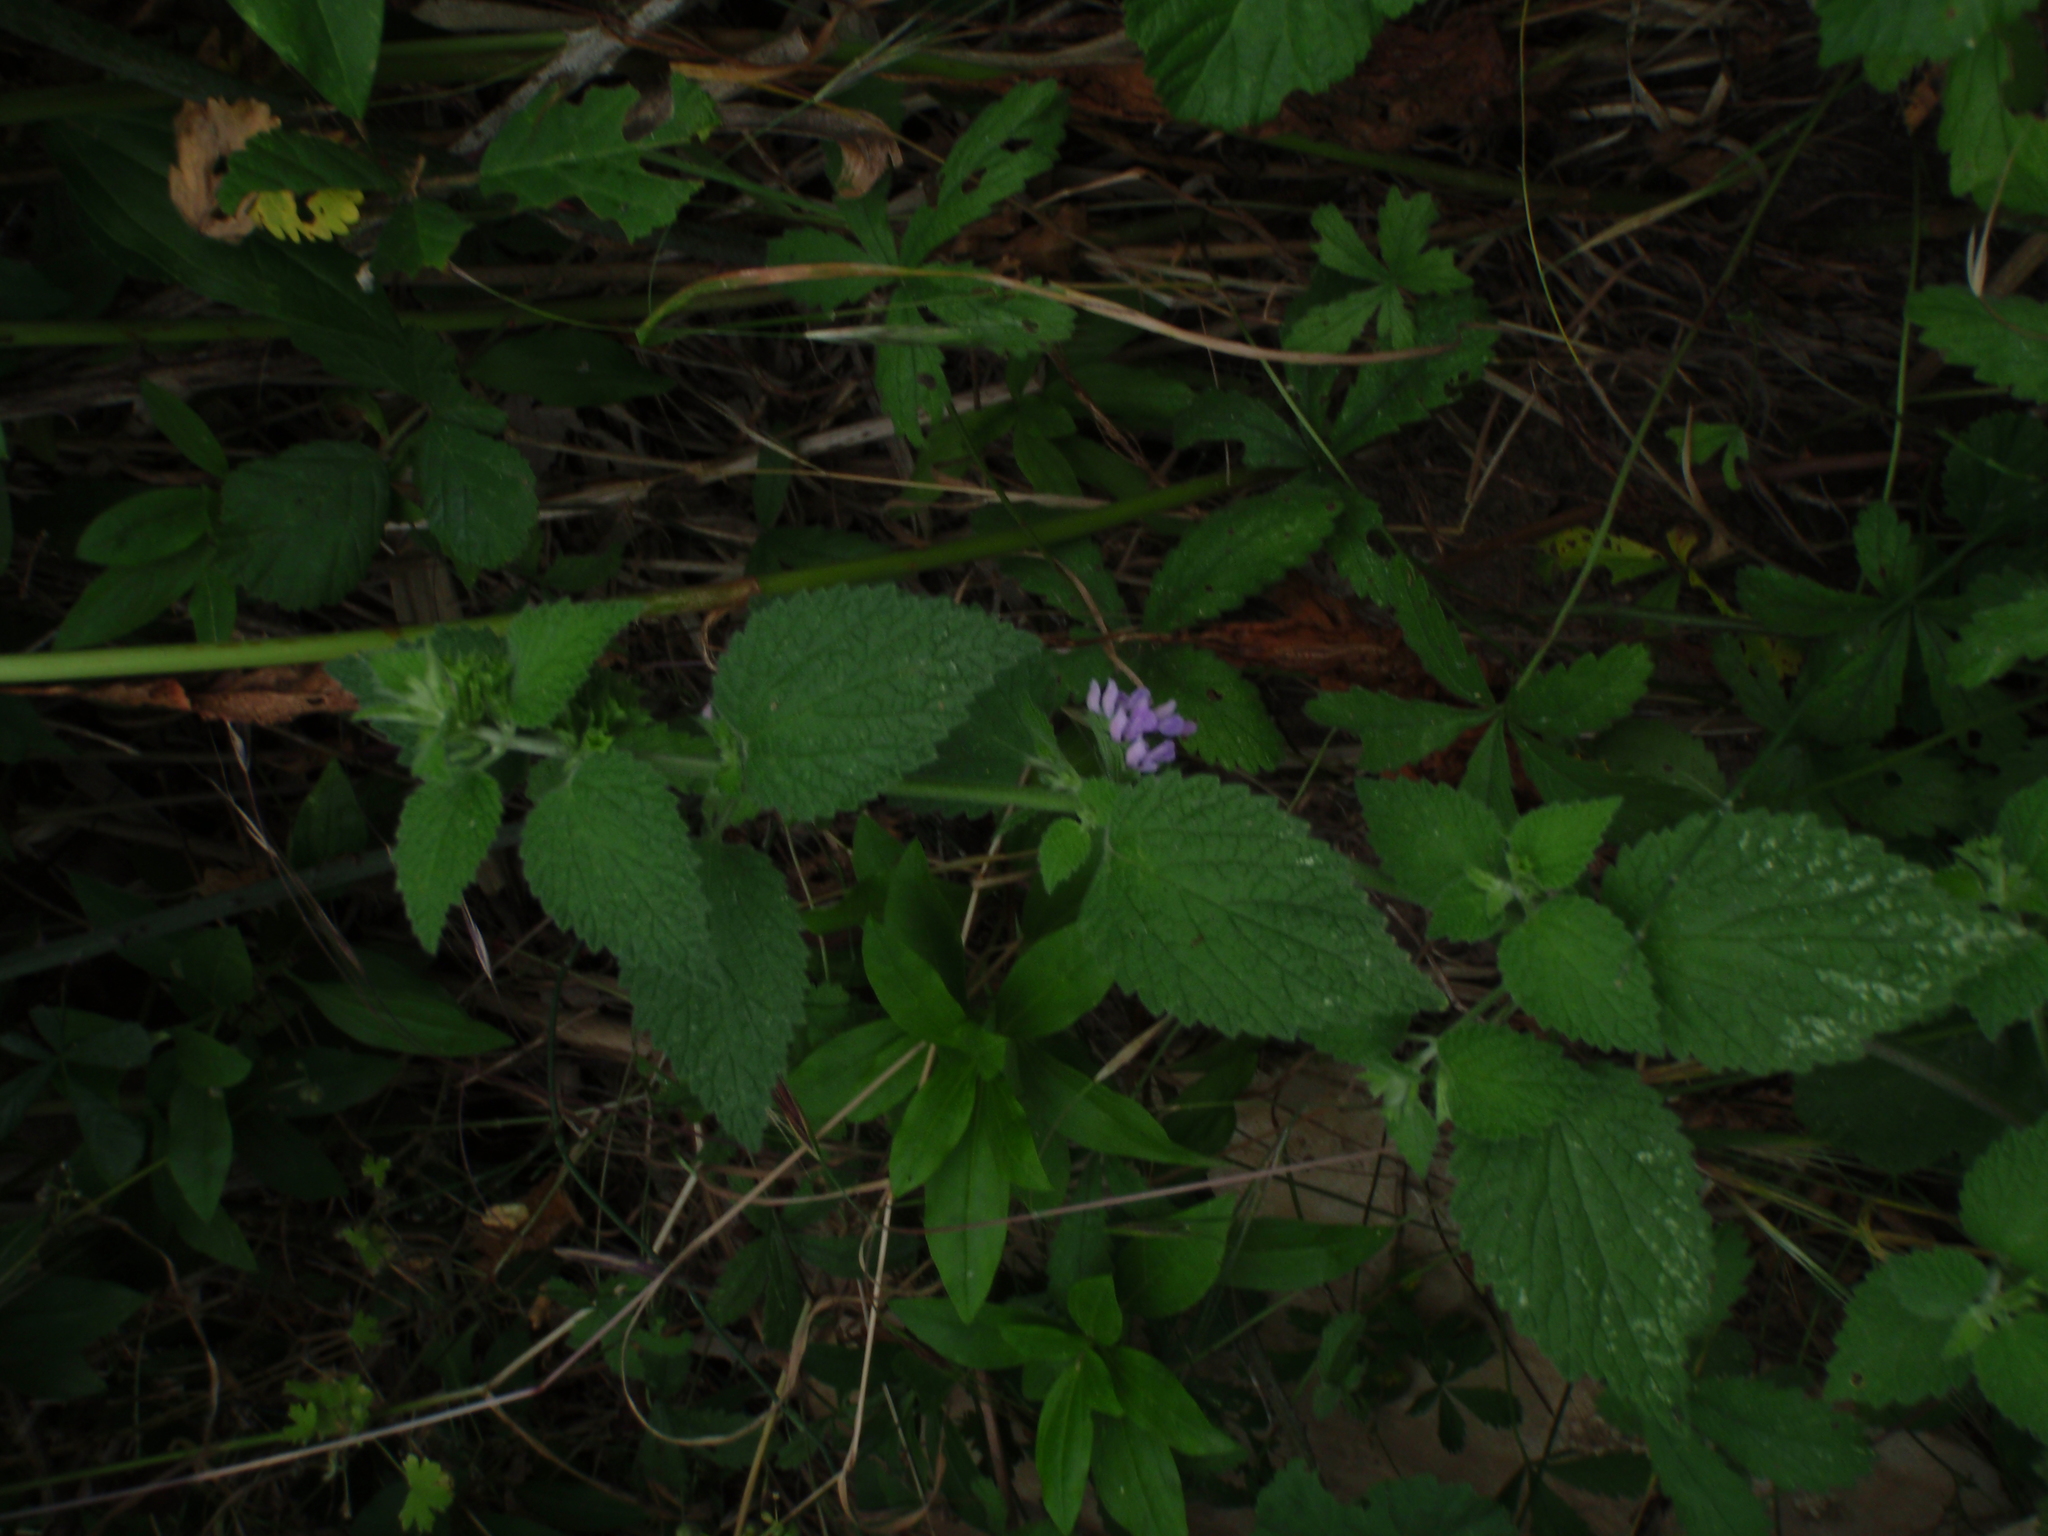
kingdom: Plantae
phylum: Tracheophyta
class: Magnoliopsida
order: Lamiales
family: Lamiaceae
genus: Ballota
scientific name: Ballota nigra
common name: Black horehound
